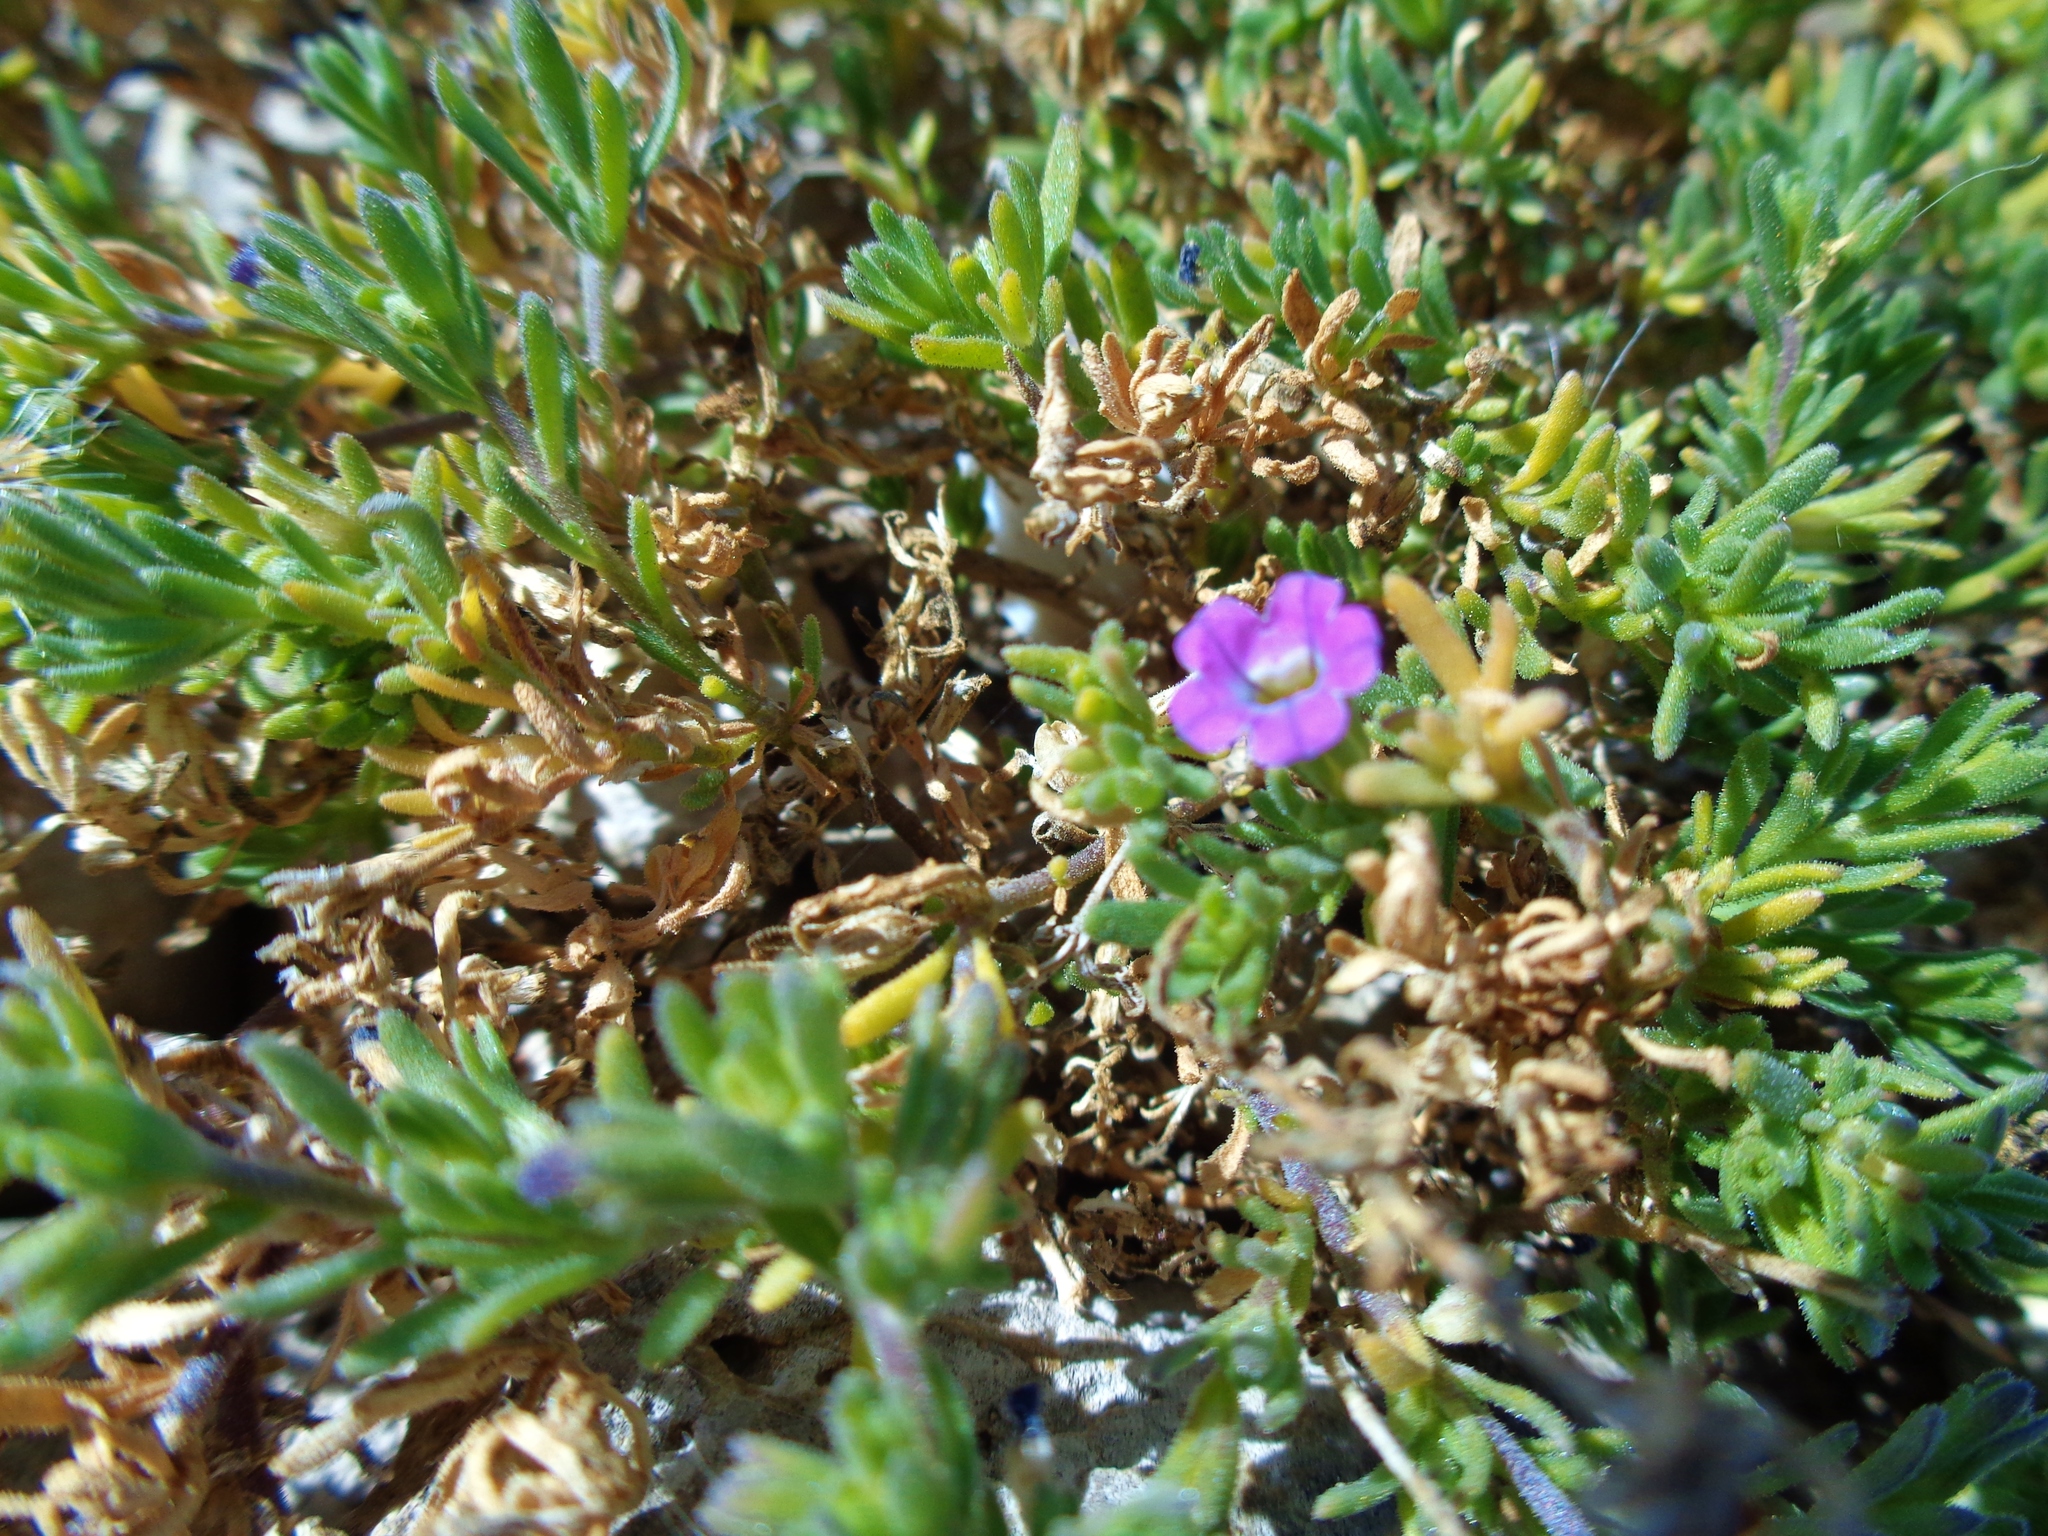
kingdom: Plantae
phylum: Tracheophyta
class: Magnoliopsida
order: Solanales
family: Solanaceae
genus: Calibrachoa
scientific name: Calibrachoa parviflora
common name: Seaside petunia
